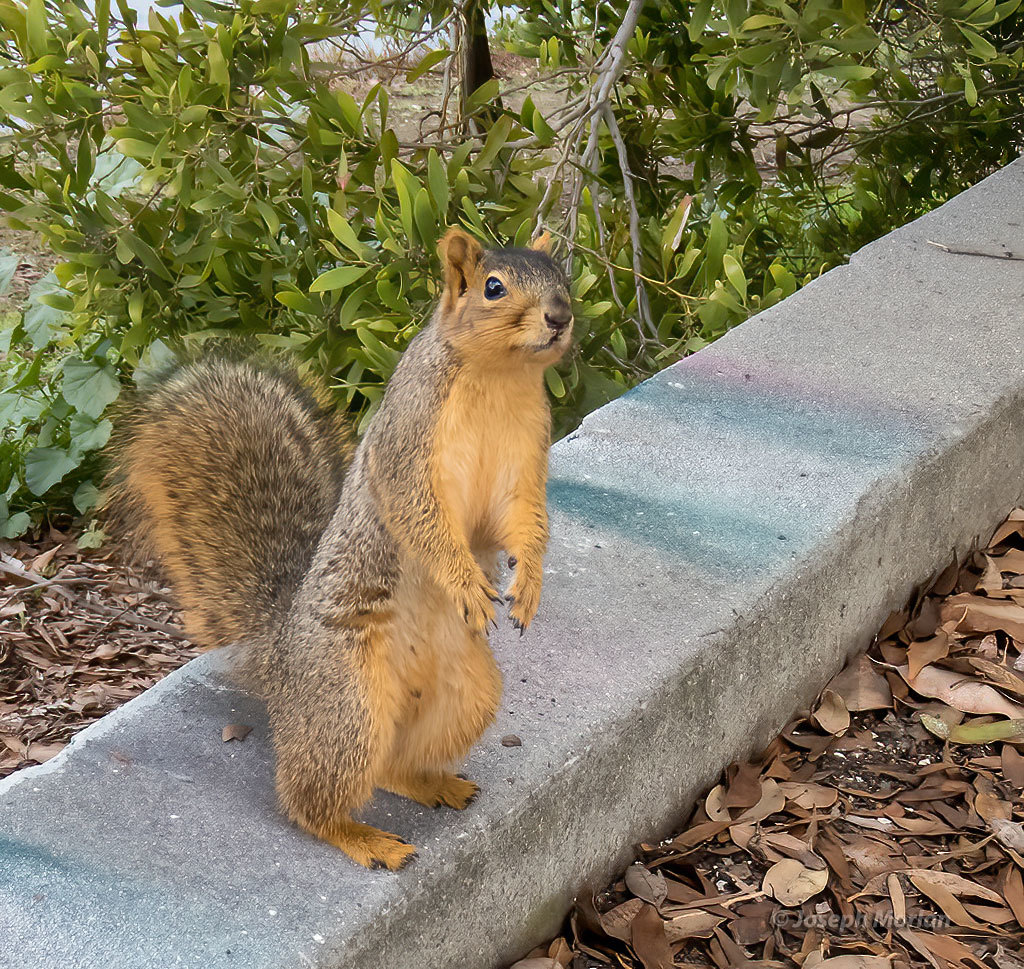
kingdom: Animalia
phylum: Chordata
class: Mammalia
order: Rodentia
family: Sciuridae
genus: Sciurus
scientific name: Sciurus niger
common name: Fox squirrel
